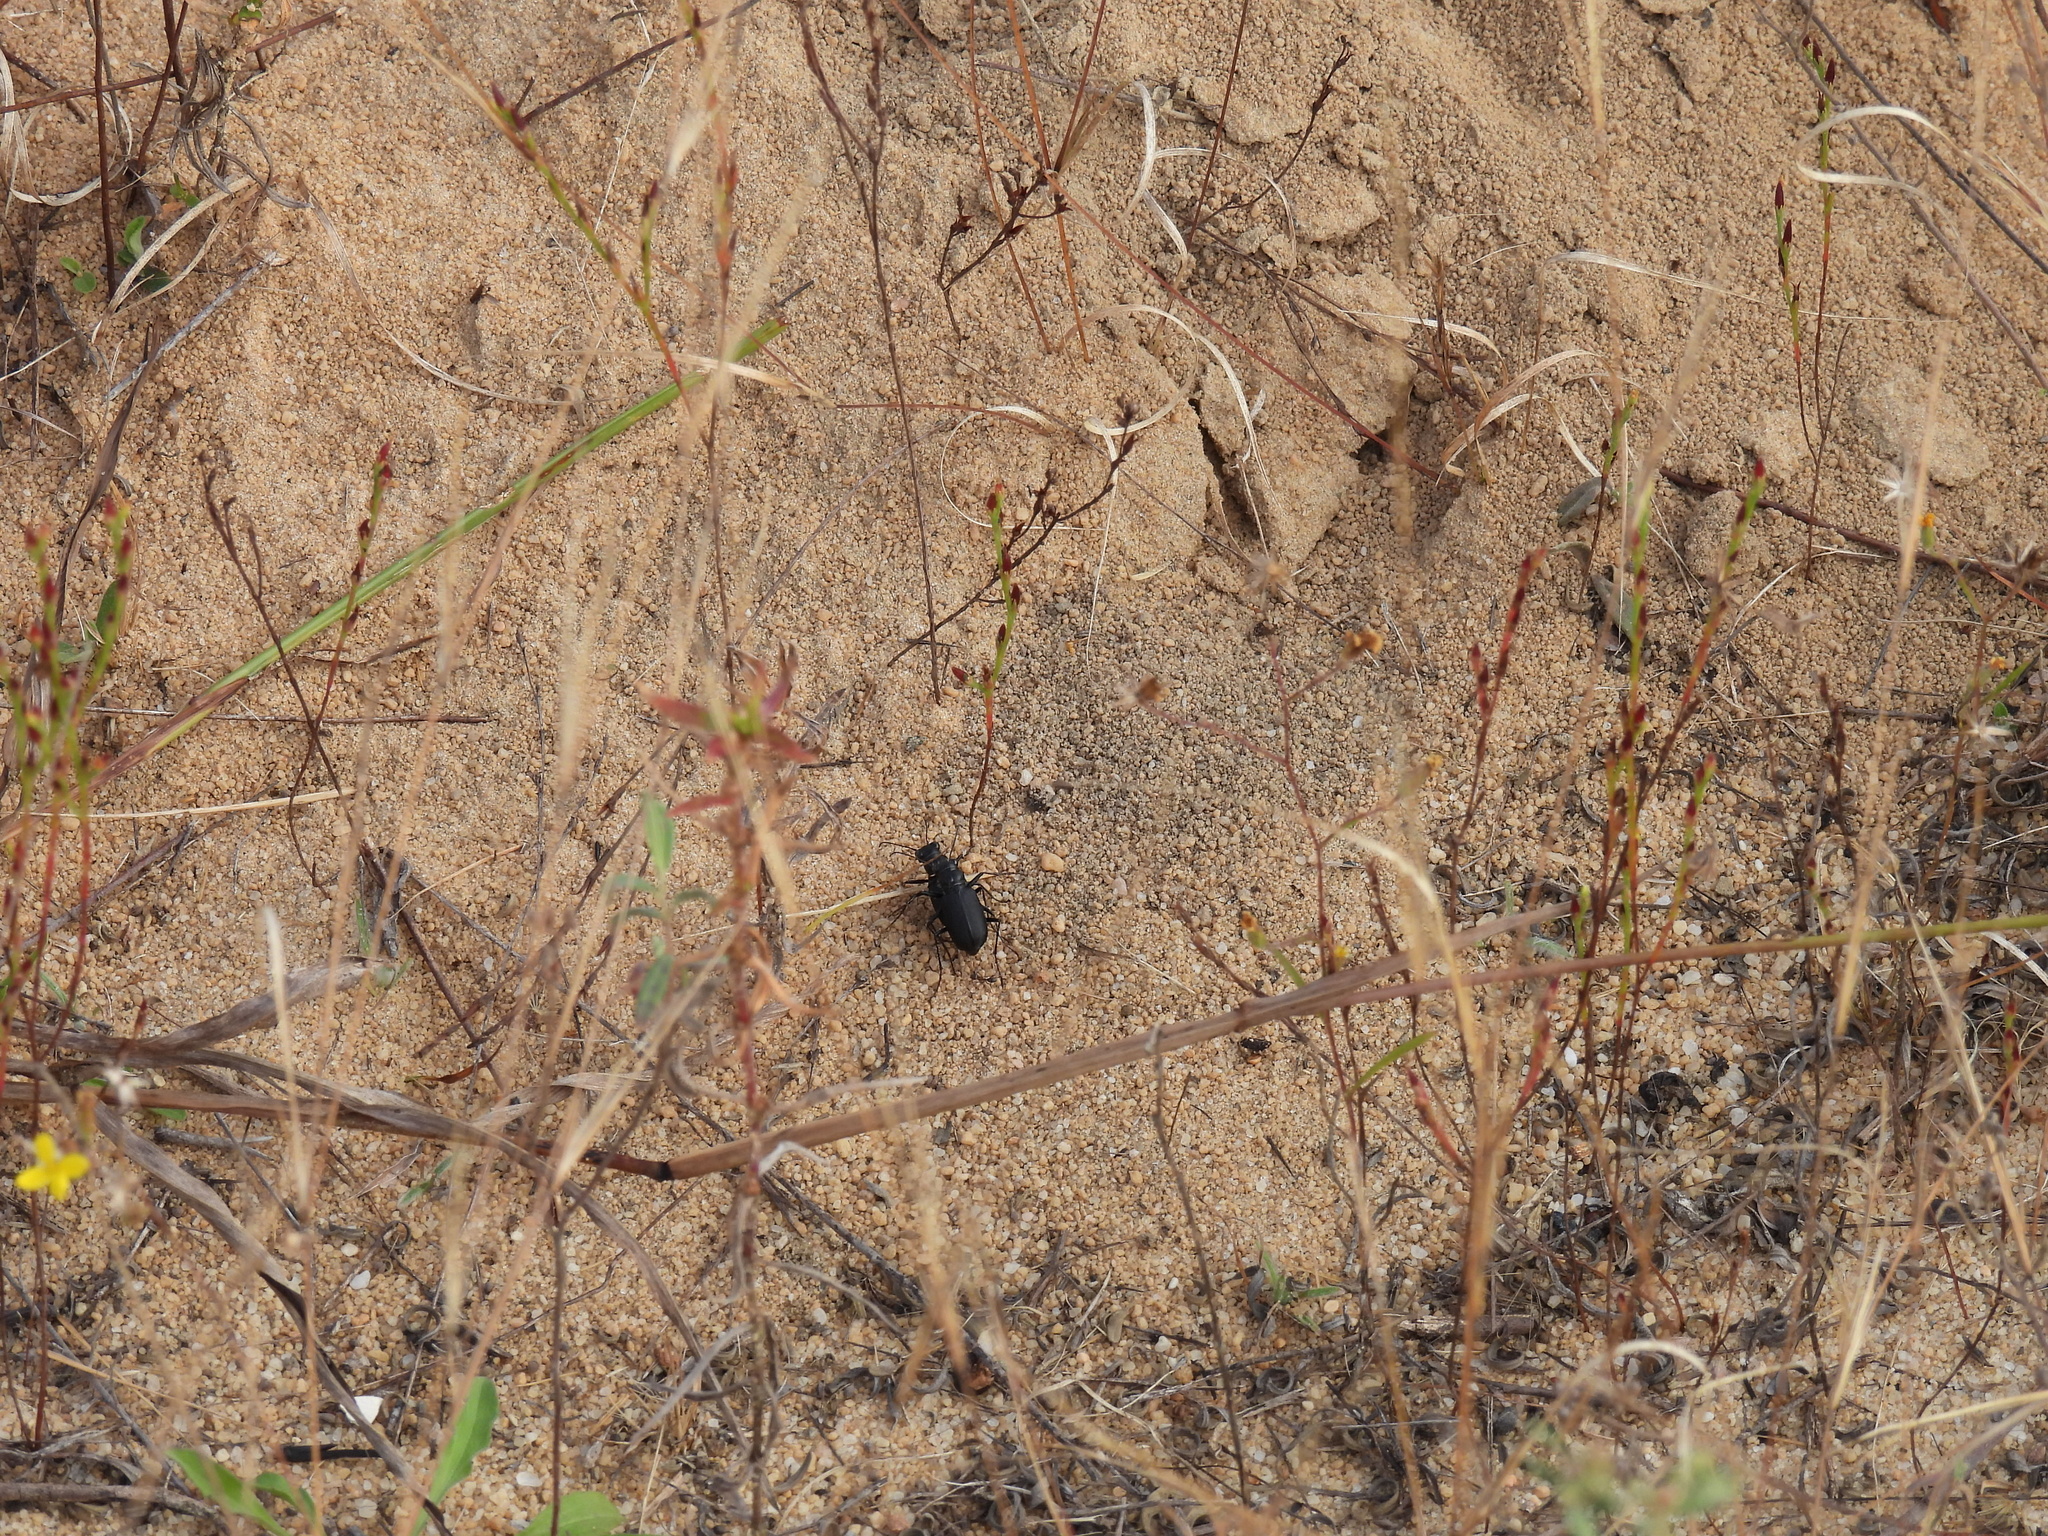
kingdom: Animalia
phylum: Arthropoda
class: Insecta
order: Coleoptera
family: Carabidae
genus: Cicindela
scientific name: Cicindela nigrior
